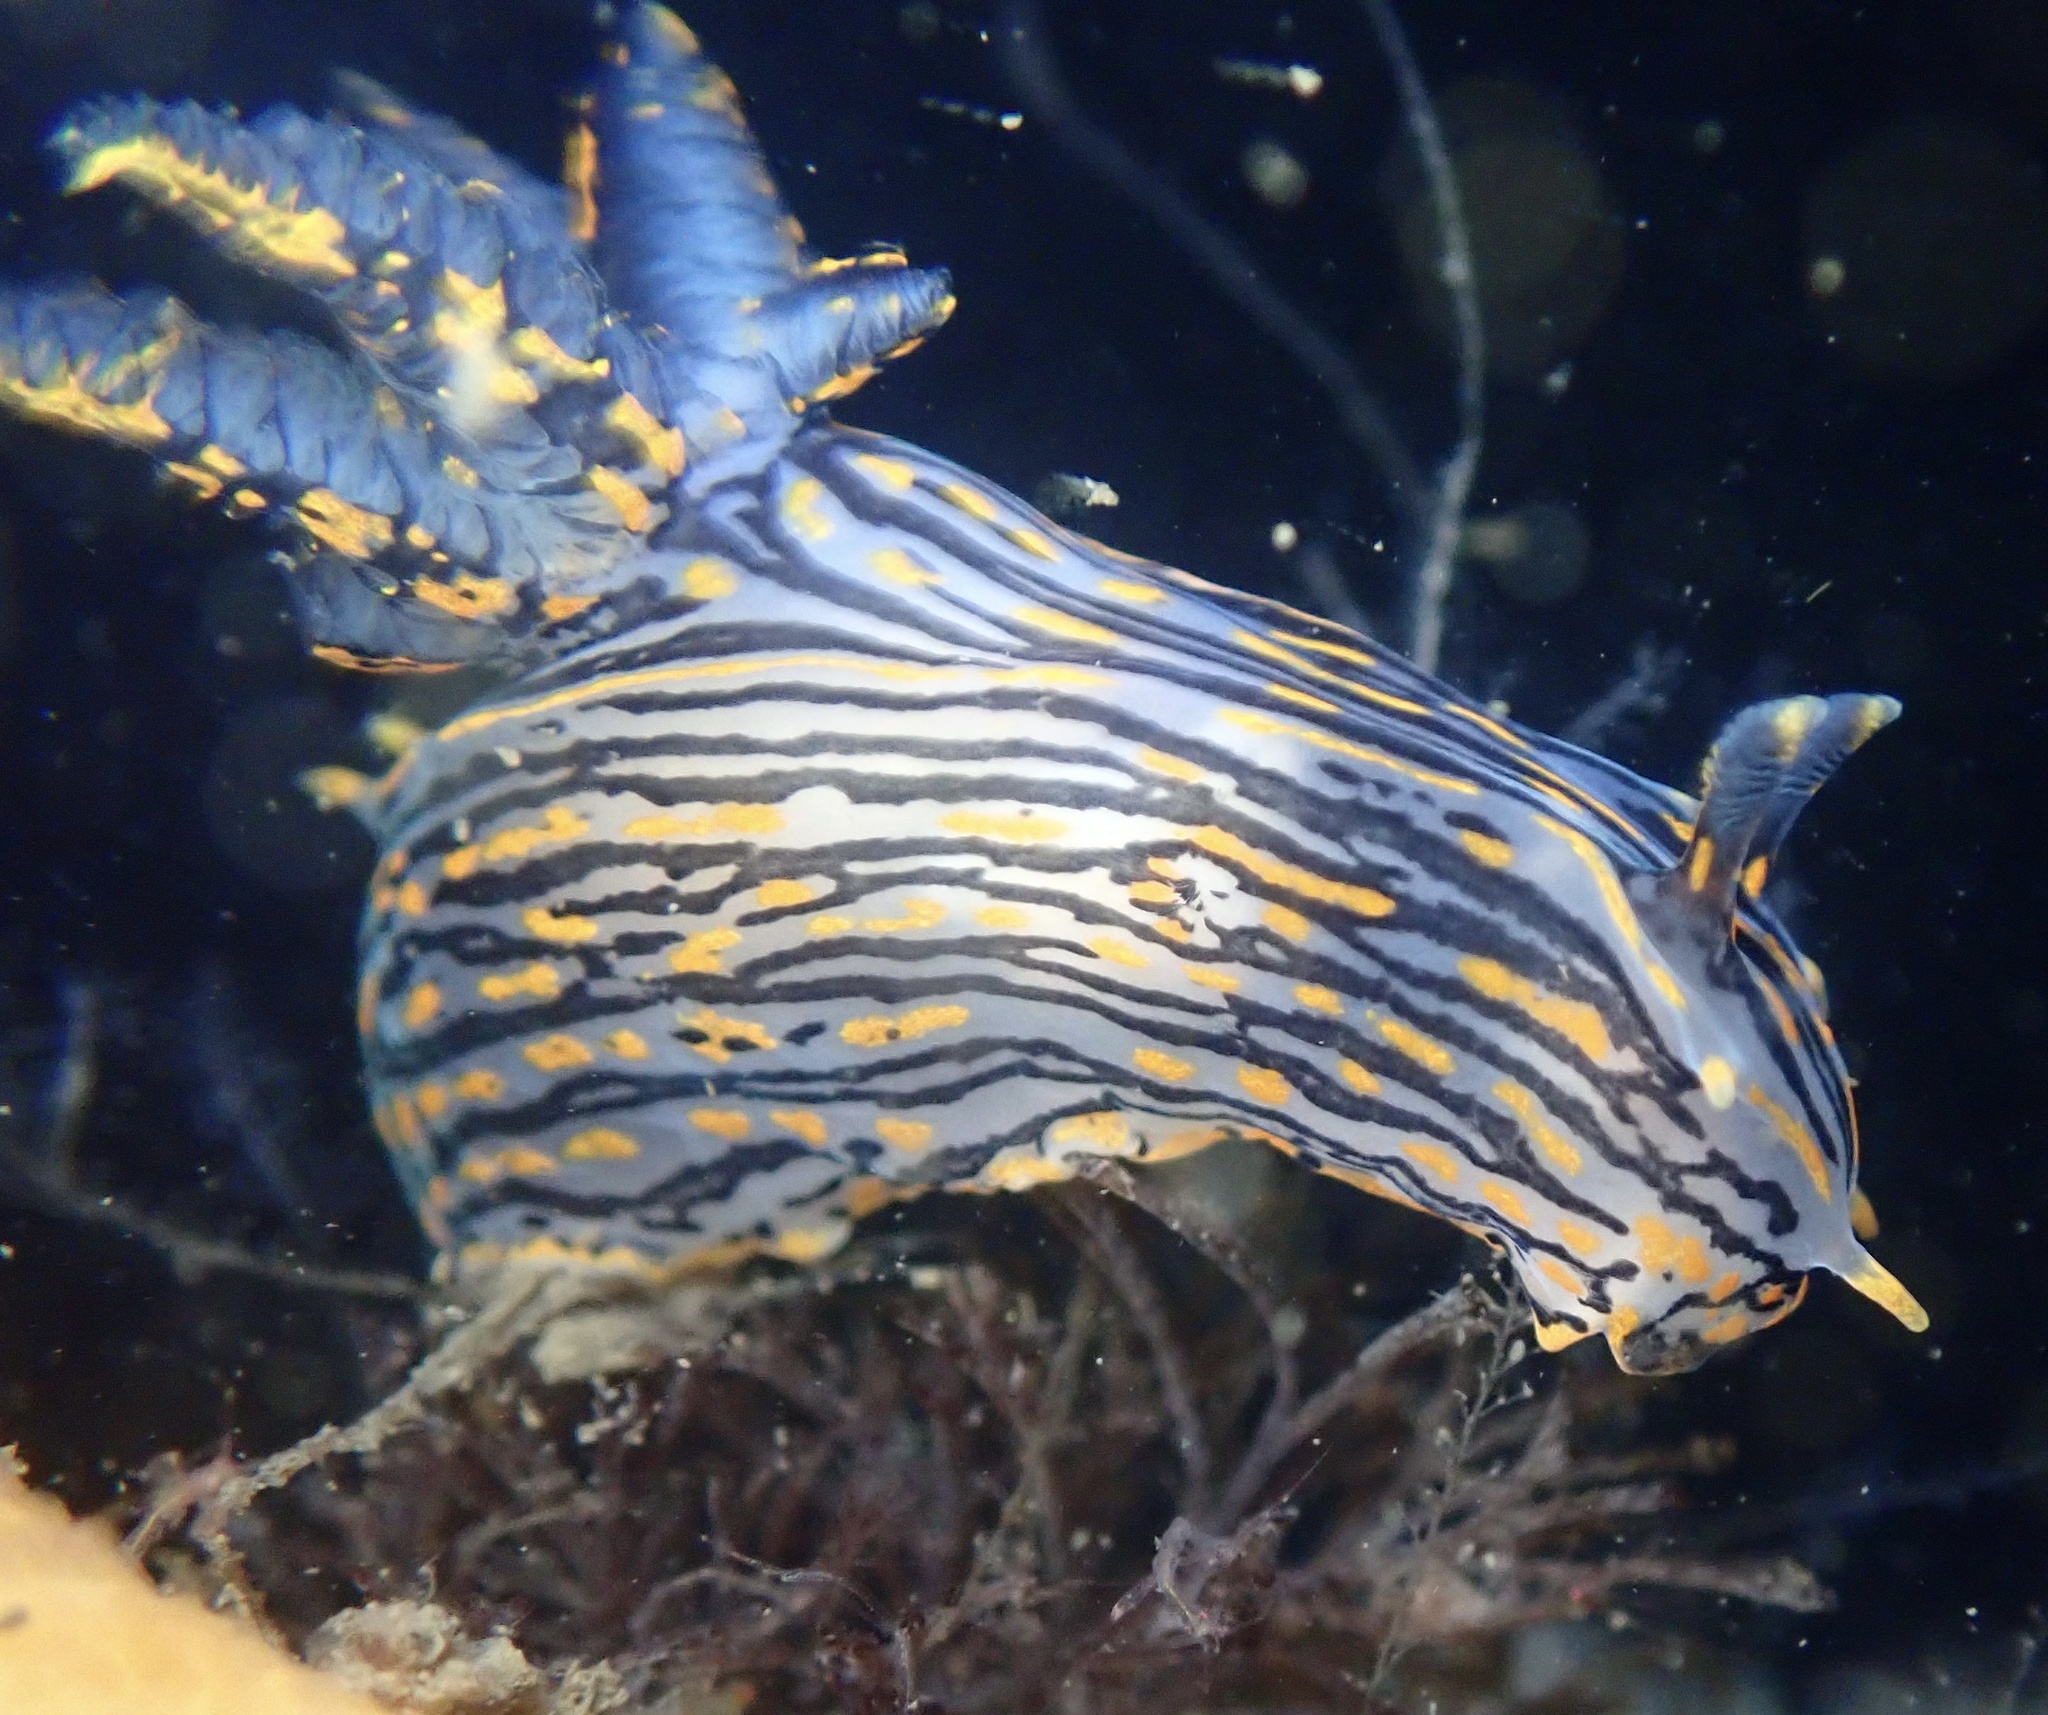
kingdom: Animalia
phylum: Mollusca
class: Gastropoda
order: Nudibranchia
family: Polyceridae
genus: Polycera
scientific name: Polycera atra
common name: Orange-spike polycera
